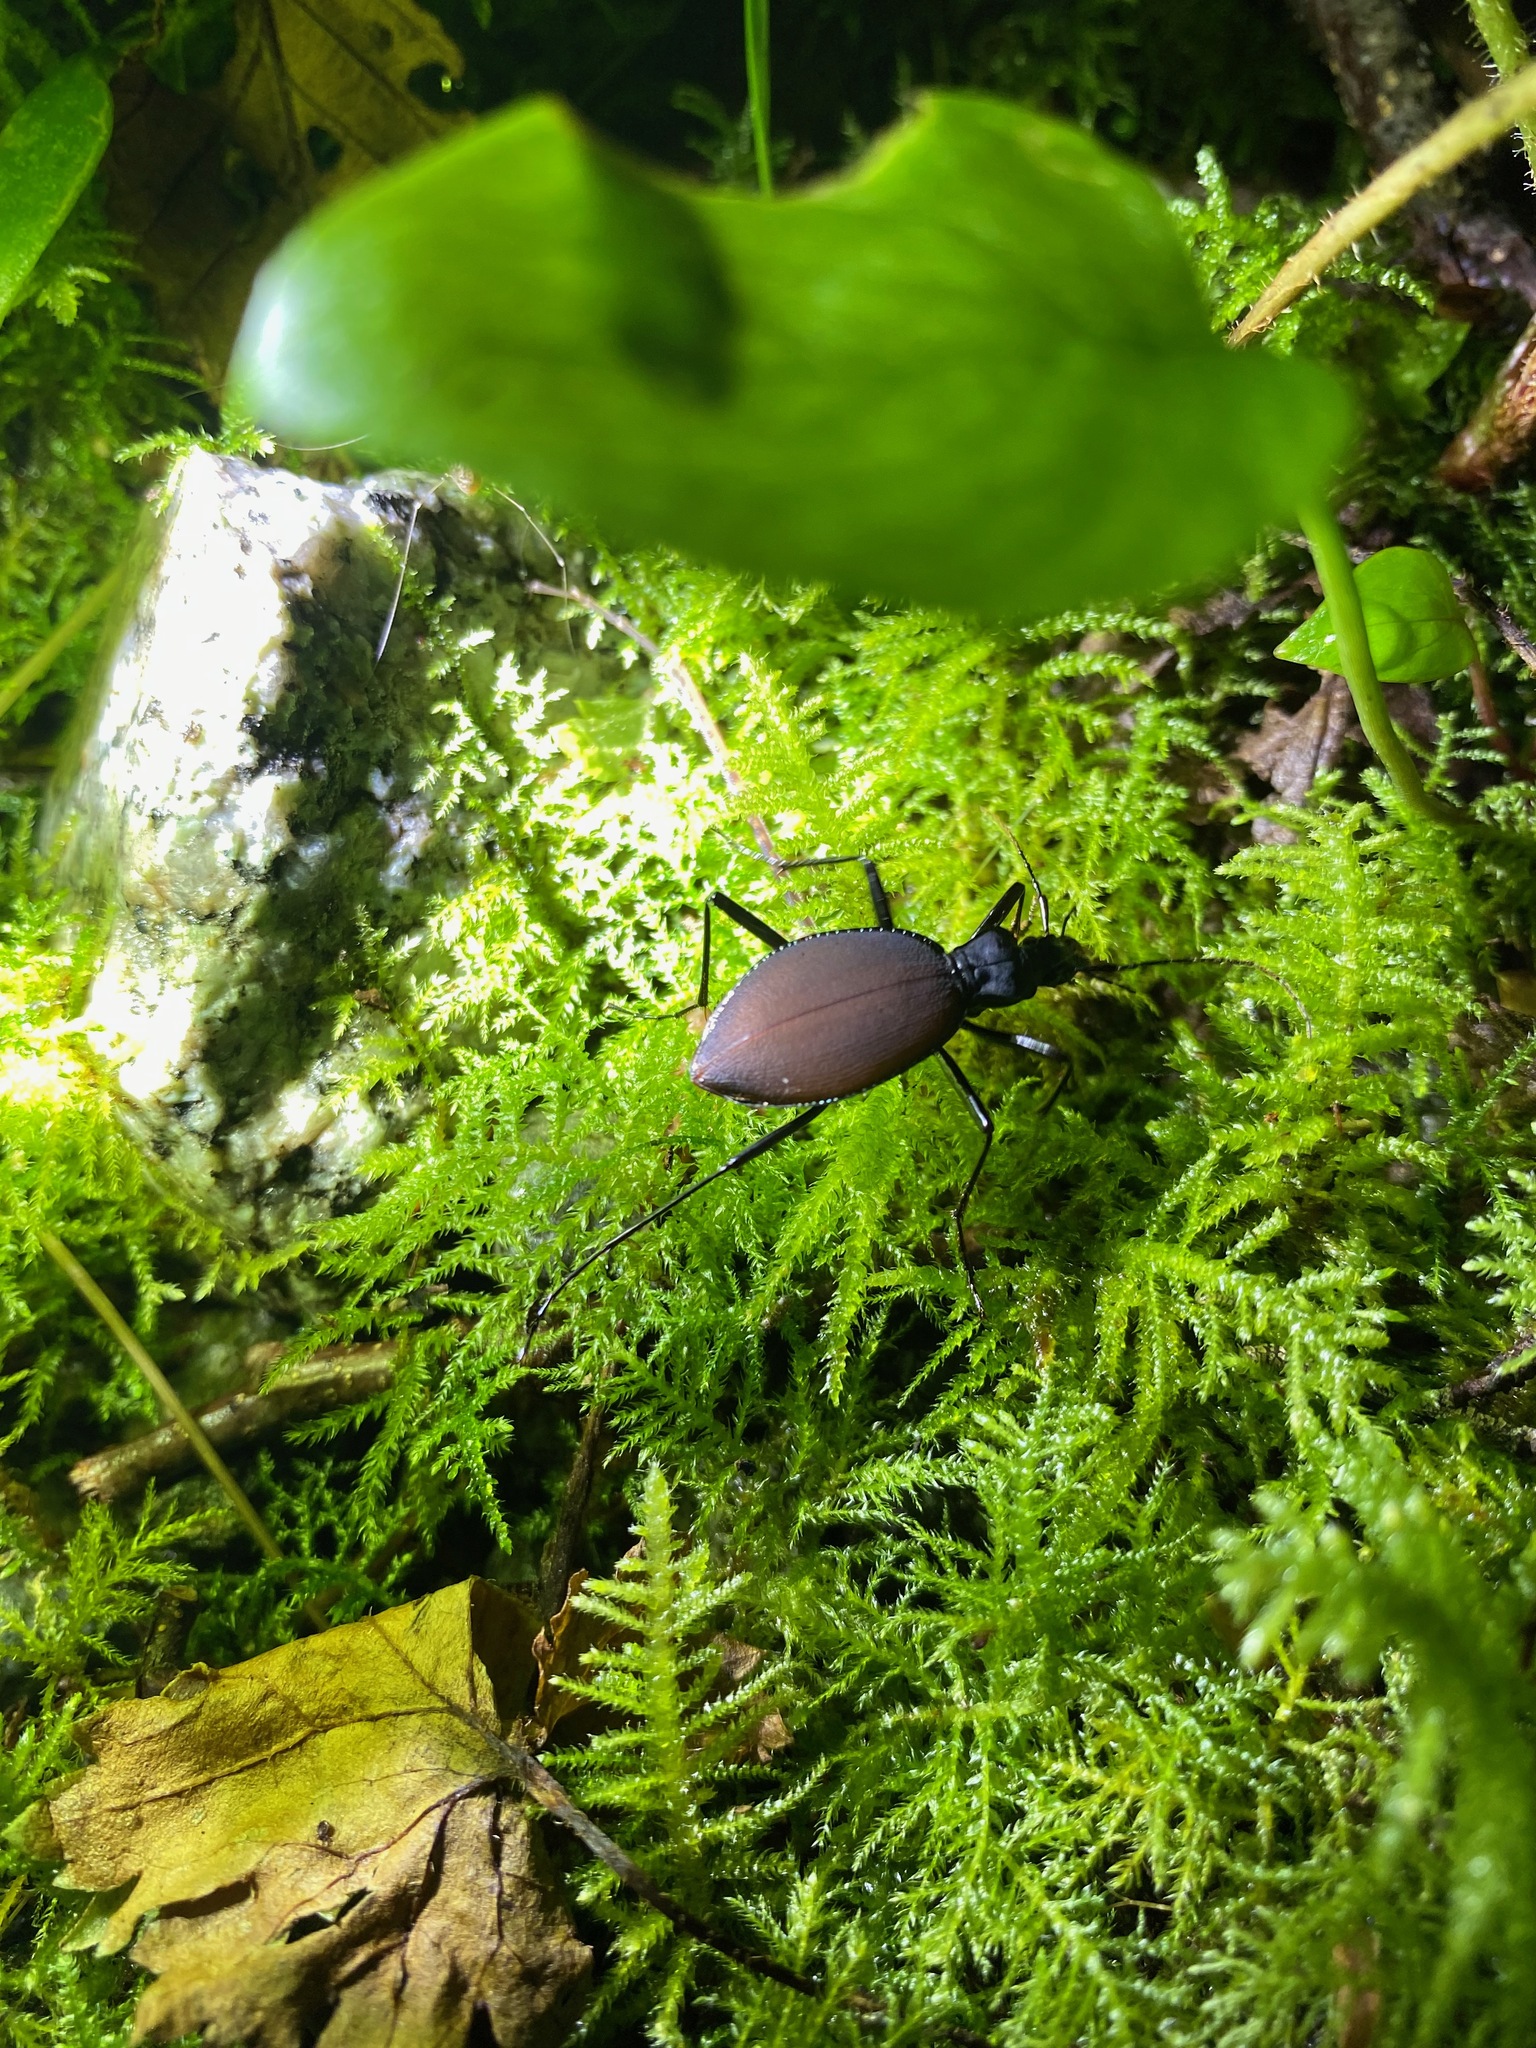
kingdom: Animalia
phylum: Arthropoda
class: Insecta
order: Coleoptera
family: Carabidae
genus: Scaphinotus
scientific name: Scaphinotus angusticollis
